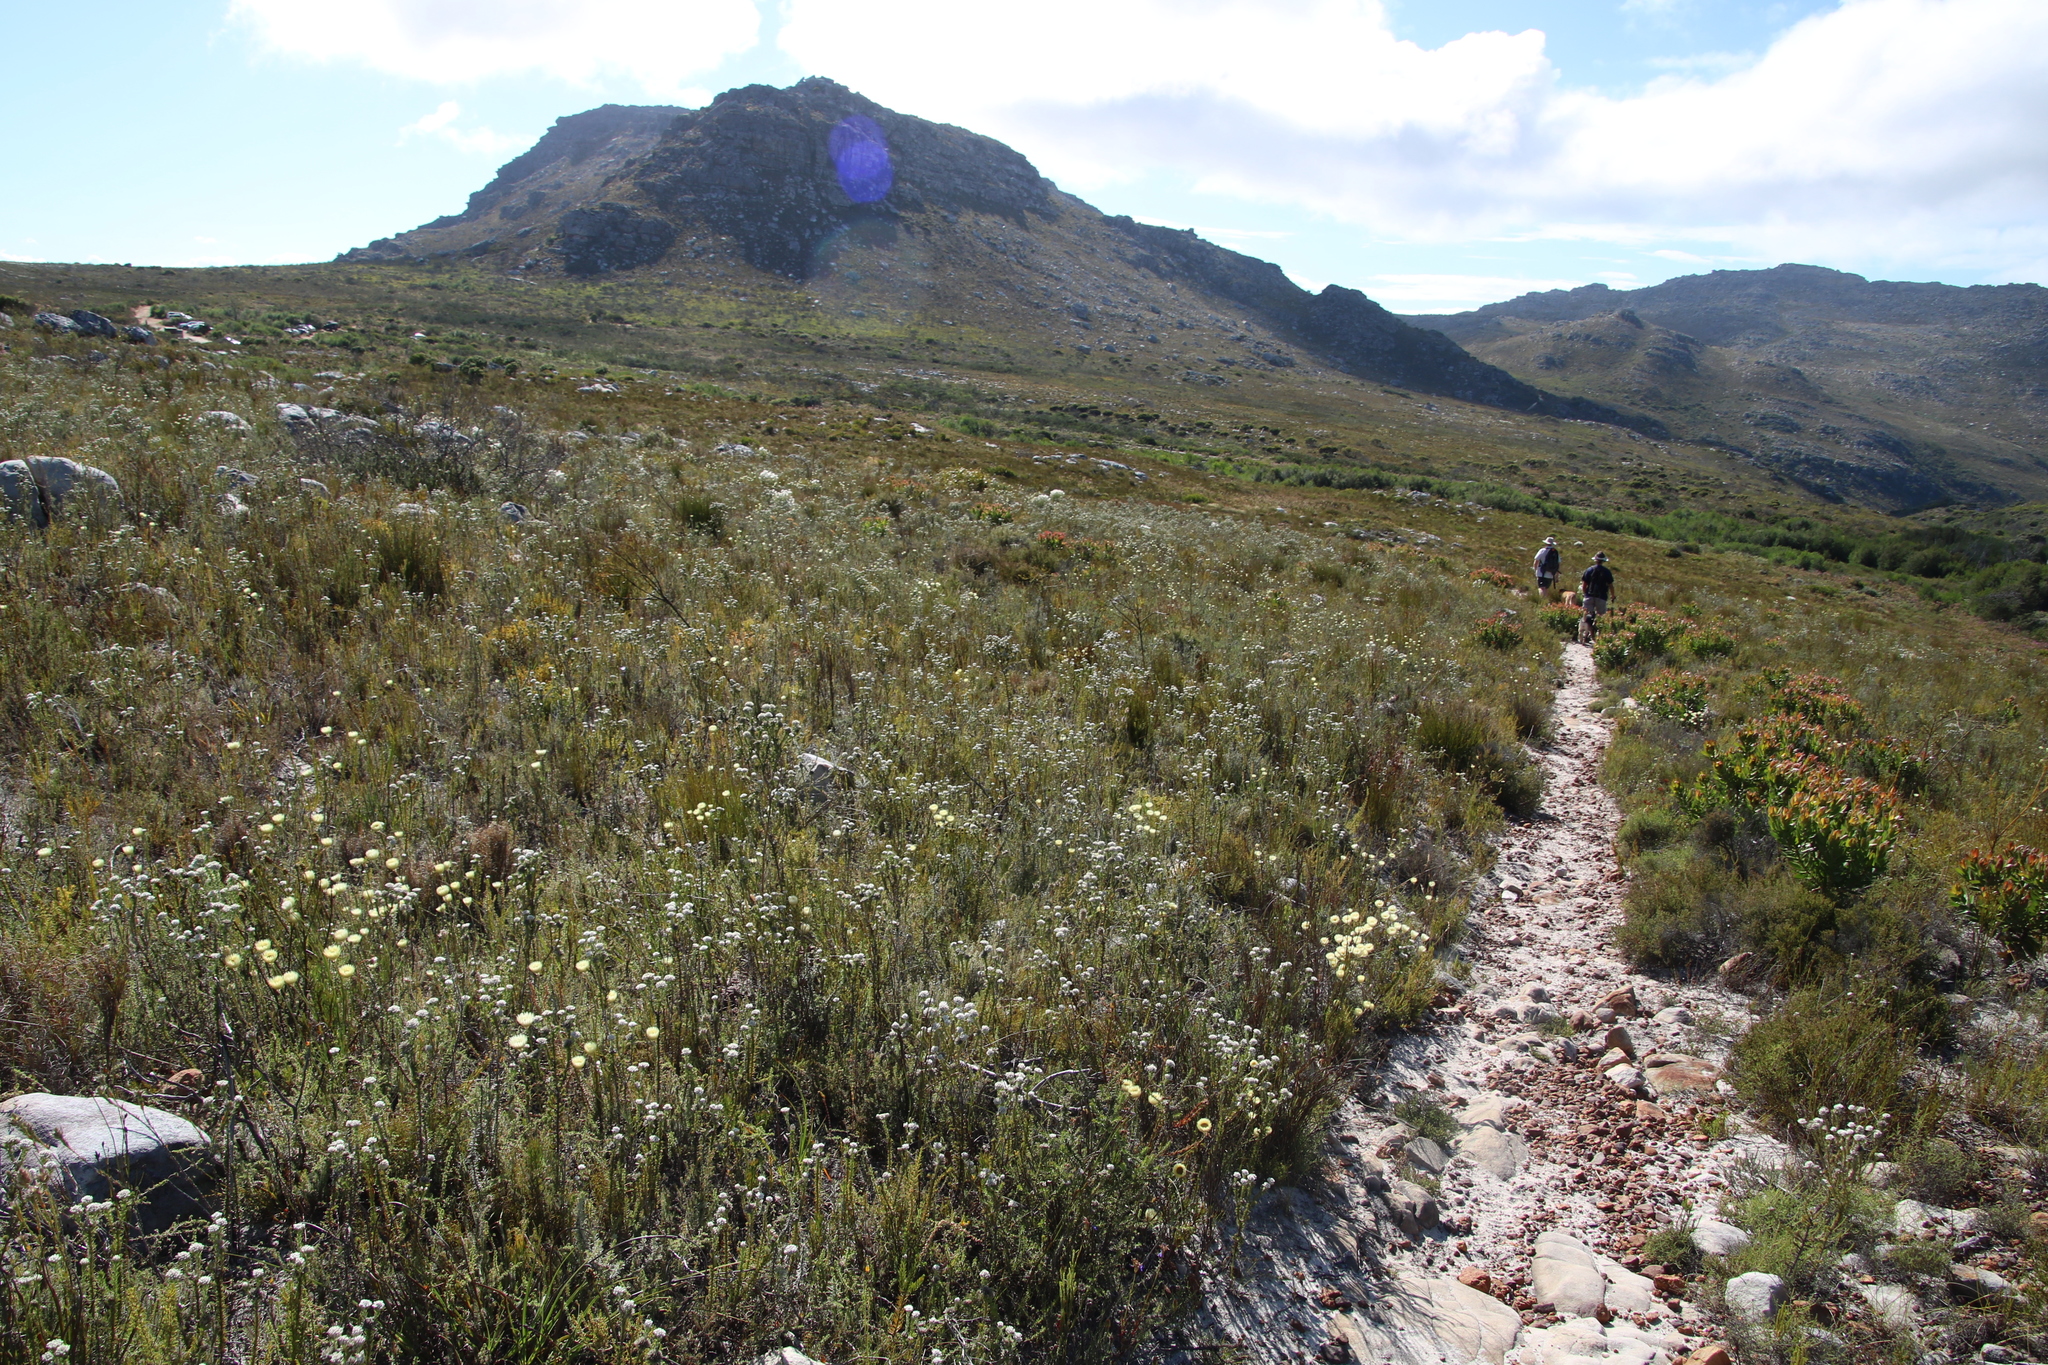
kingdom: Plantae
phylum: Tracheophyta
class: Magnoliopsida
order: Asterales
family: Asteraceae
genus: Edmondia
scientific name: Edmondia sesamoides
